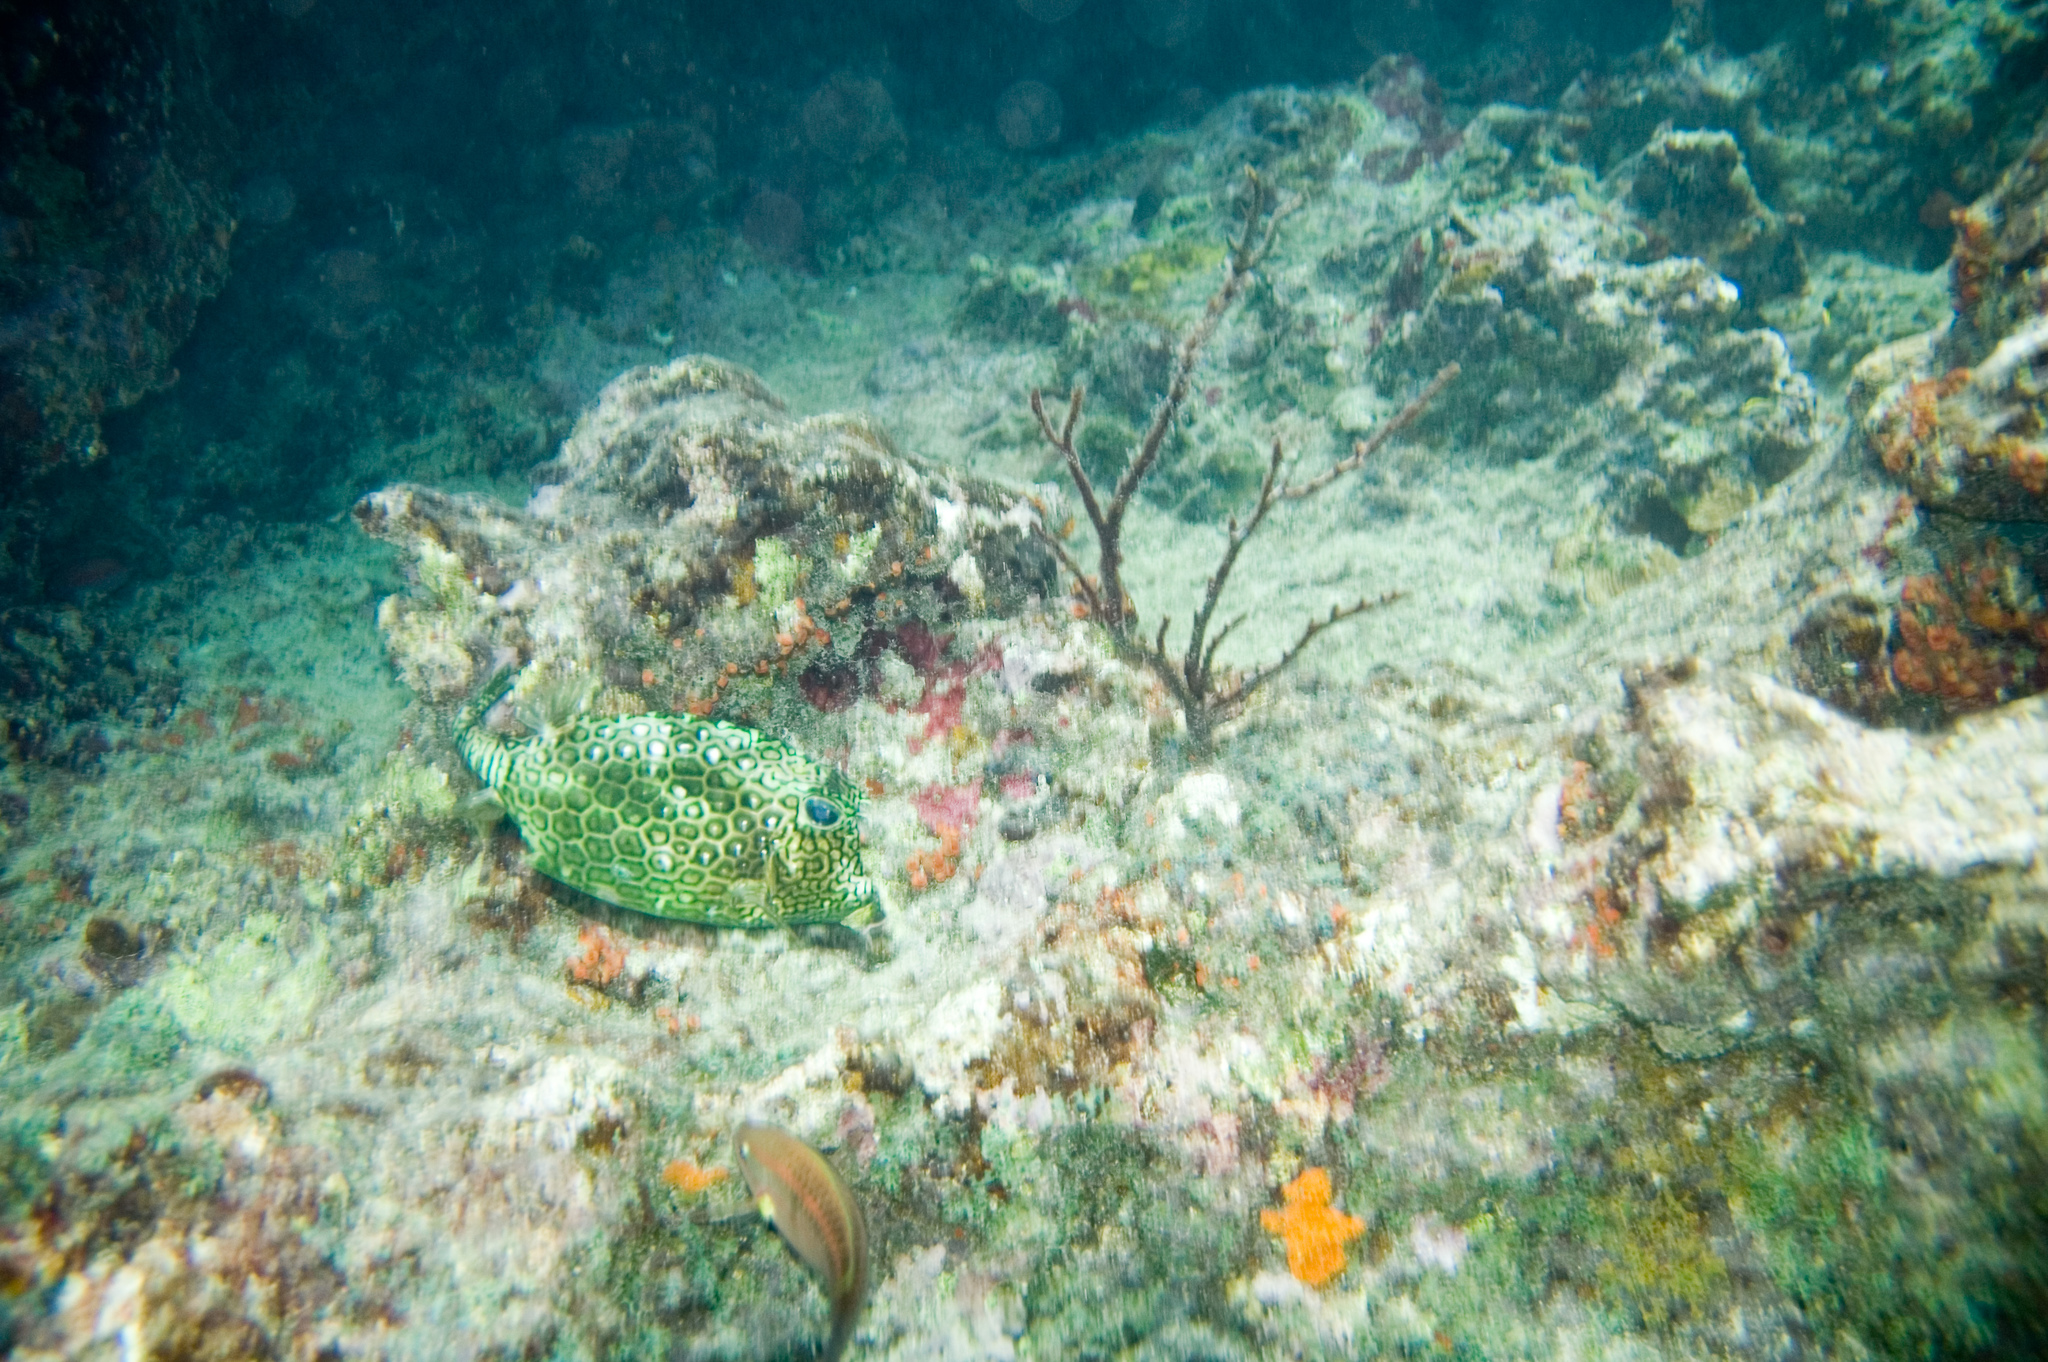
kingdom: Animalia
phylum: Chordata
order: Tetraodontiformes
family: Ostraciidae
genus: Acanthostracion
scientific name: Acanthostracion polygonius
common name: Honeycomb cowfish
